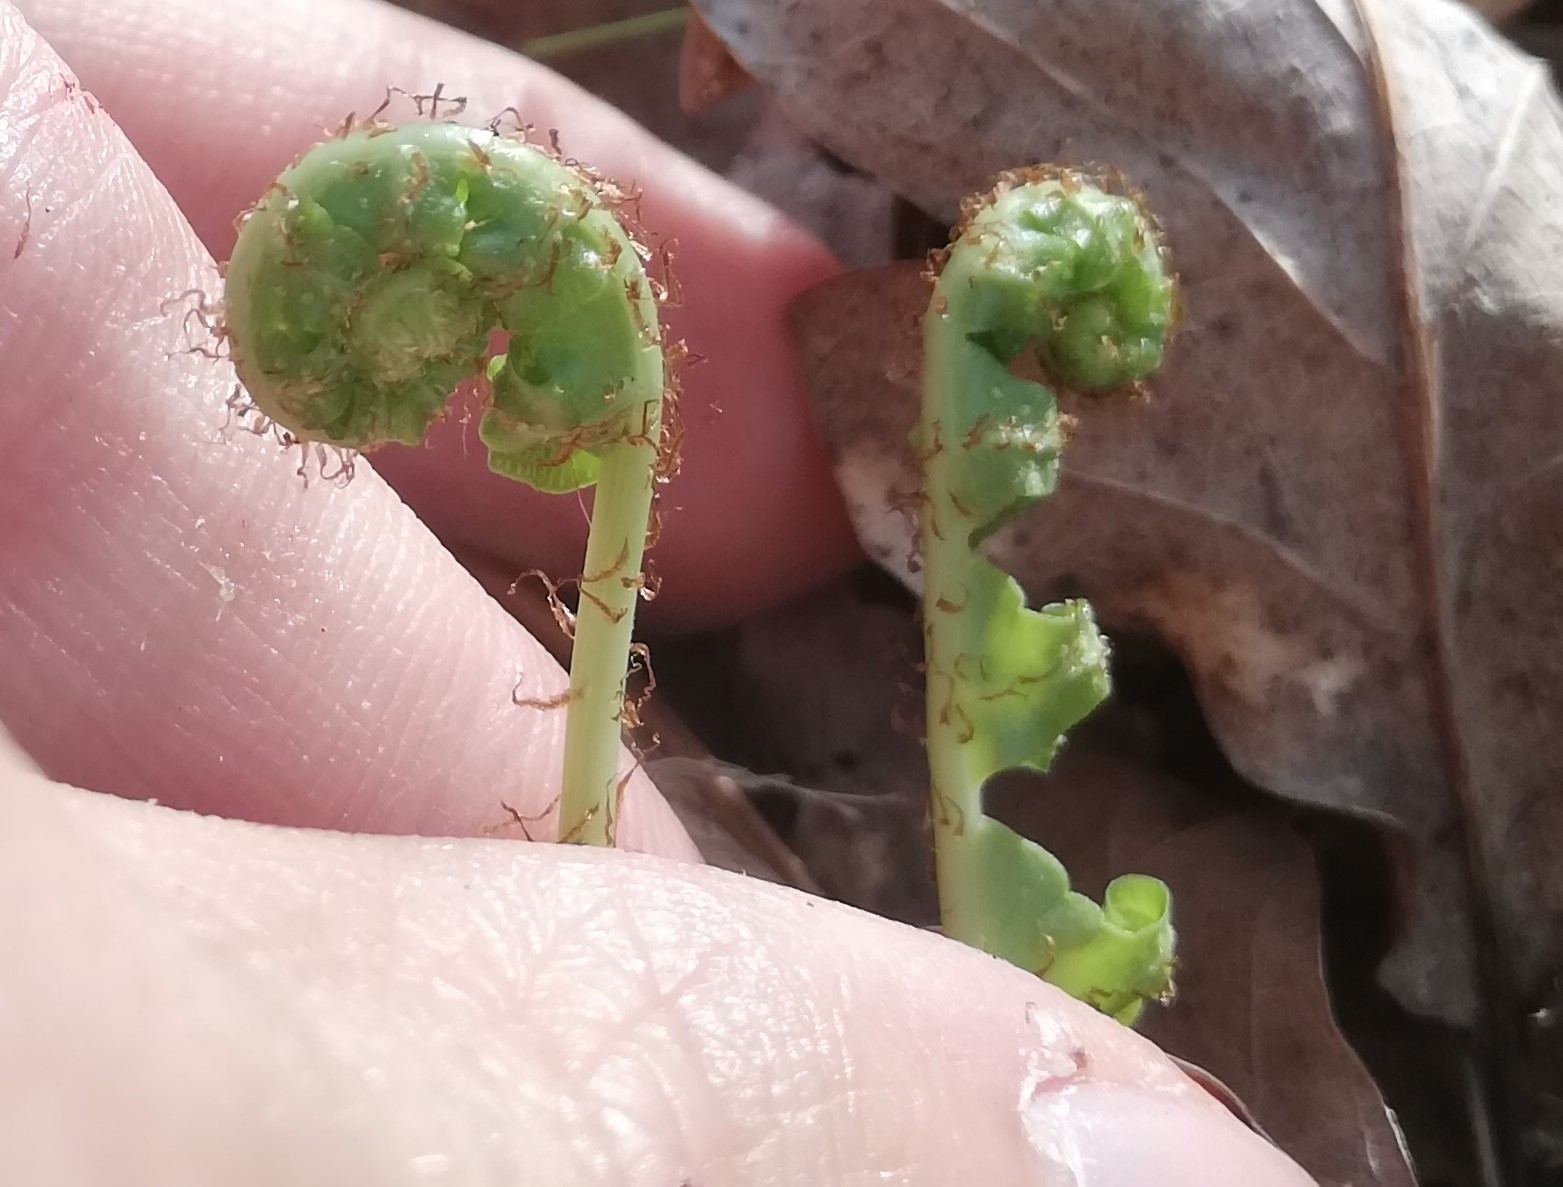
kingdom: Plantae
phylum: Tracheophyta
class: Polypodiopsida
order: Polypodiales
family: Polypodiaceae
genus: Polypodium
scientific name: Polypodium vulgare
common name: Common polypody
